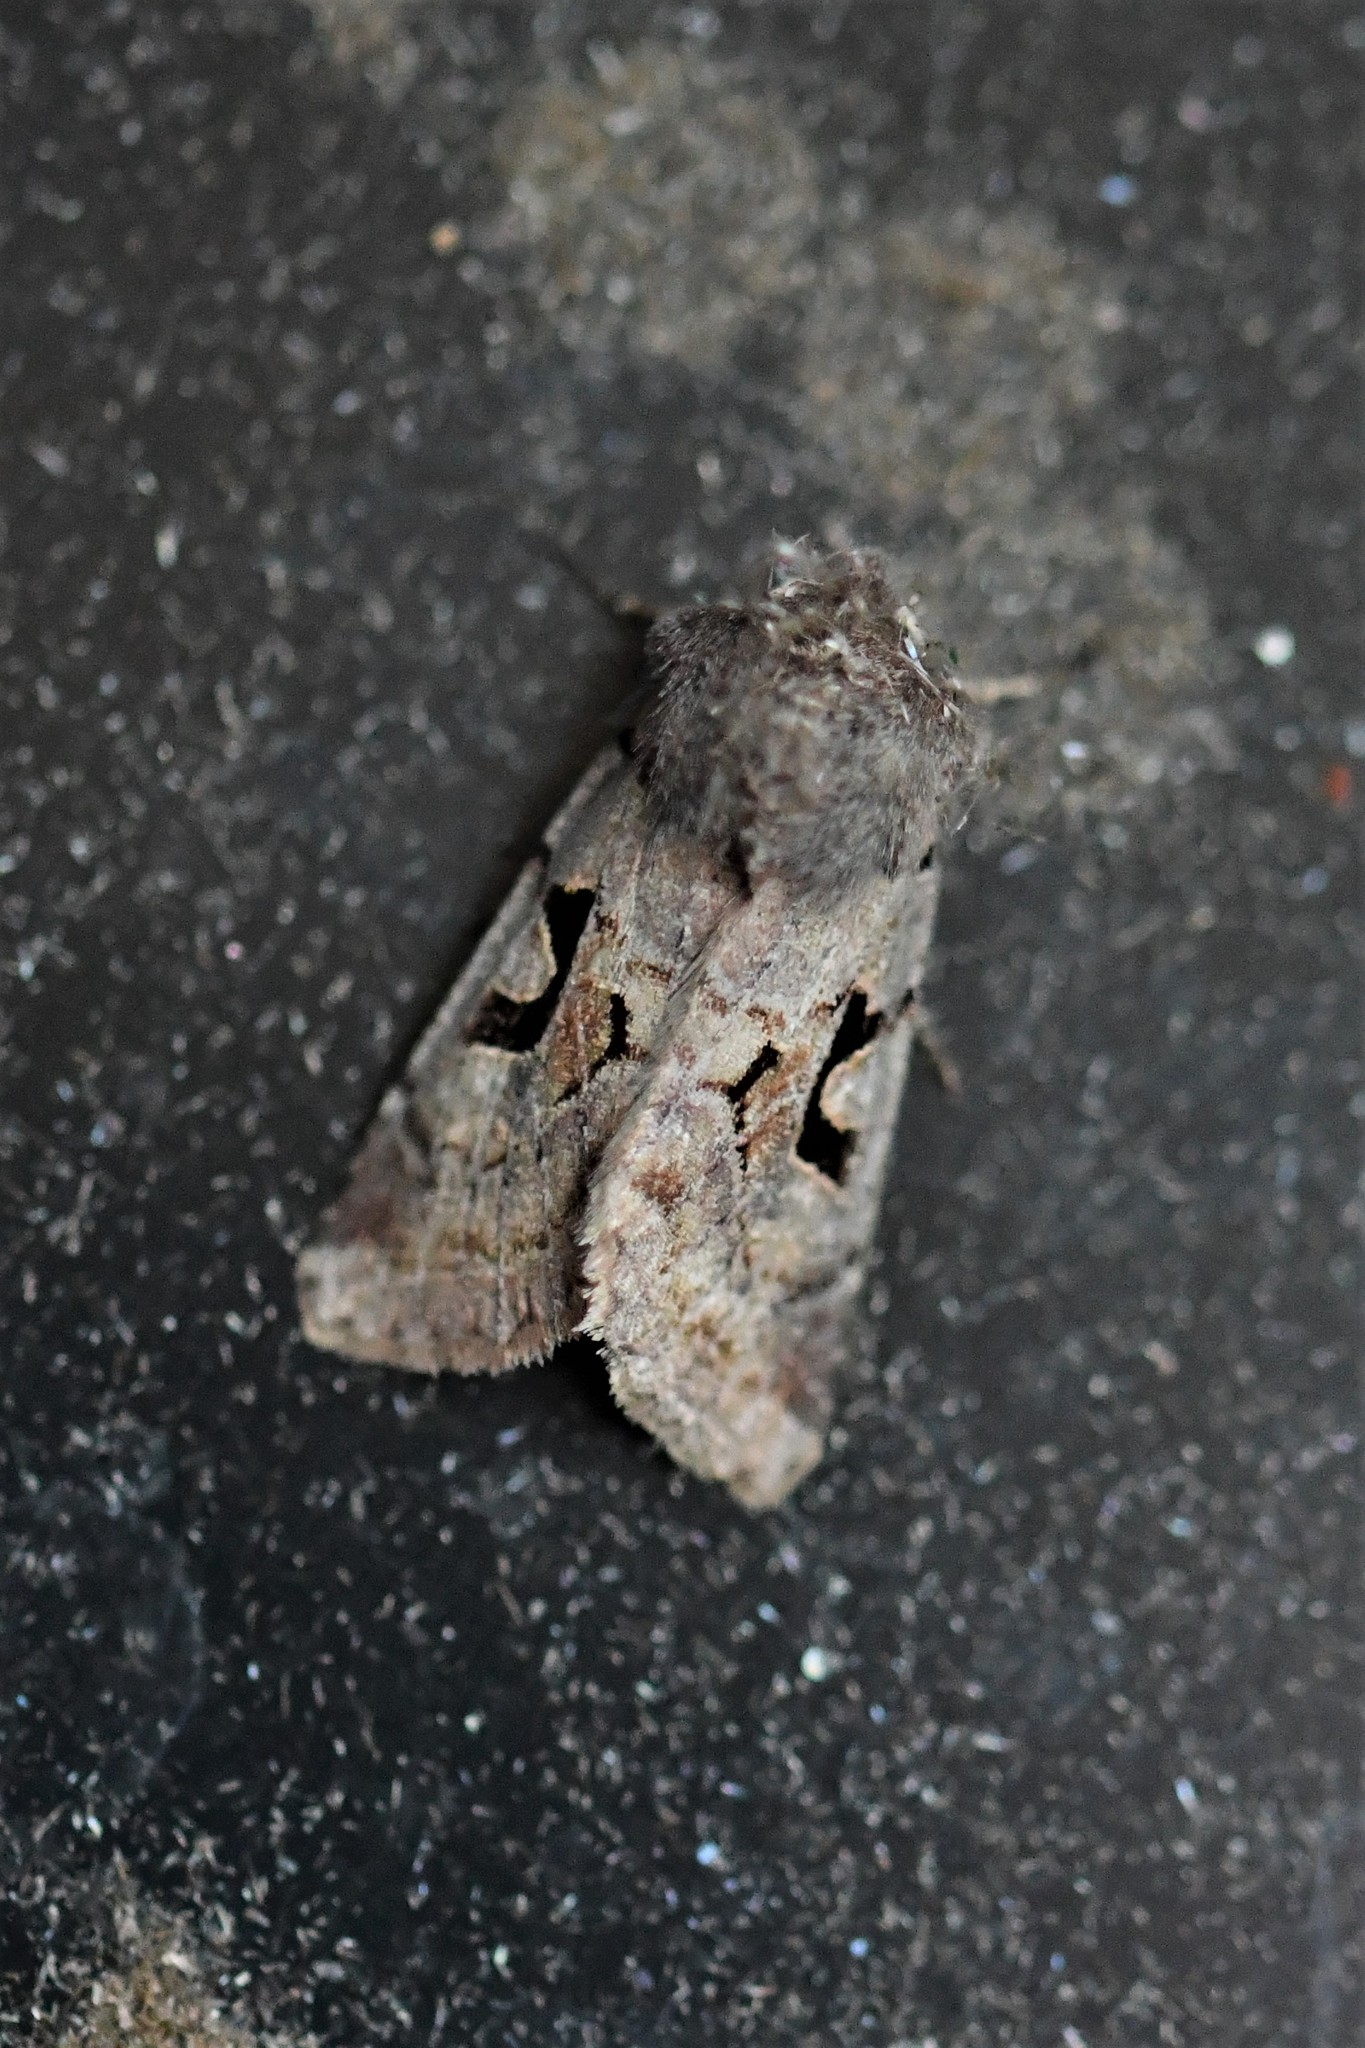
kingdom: Animalia
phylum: Arthropoda
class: Insecta
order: Lepidoptera
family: Noctuidae
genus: Orthosia
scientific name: Orthosia gothica
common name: Hebrew character
